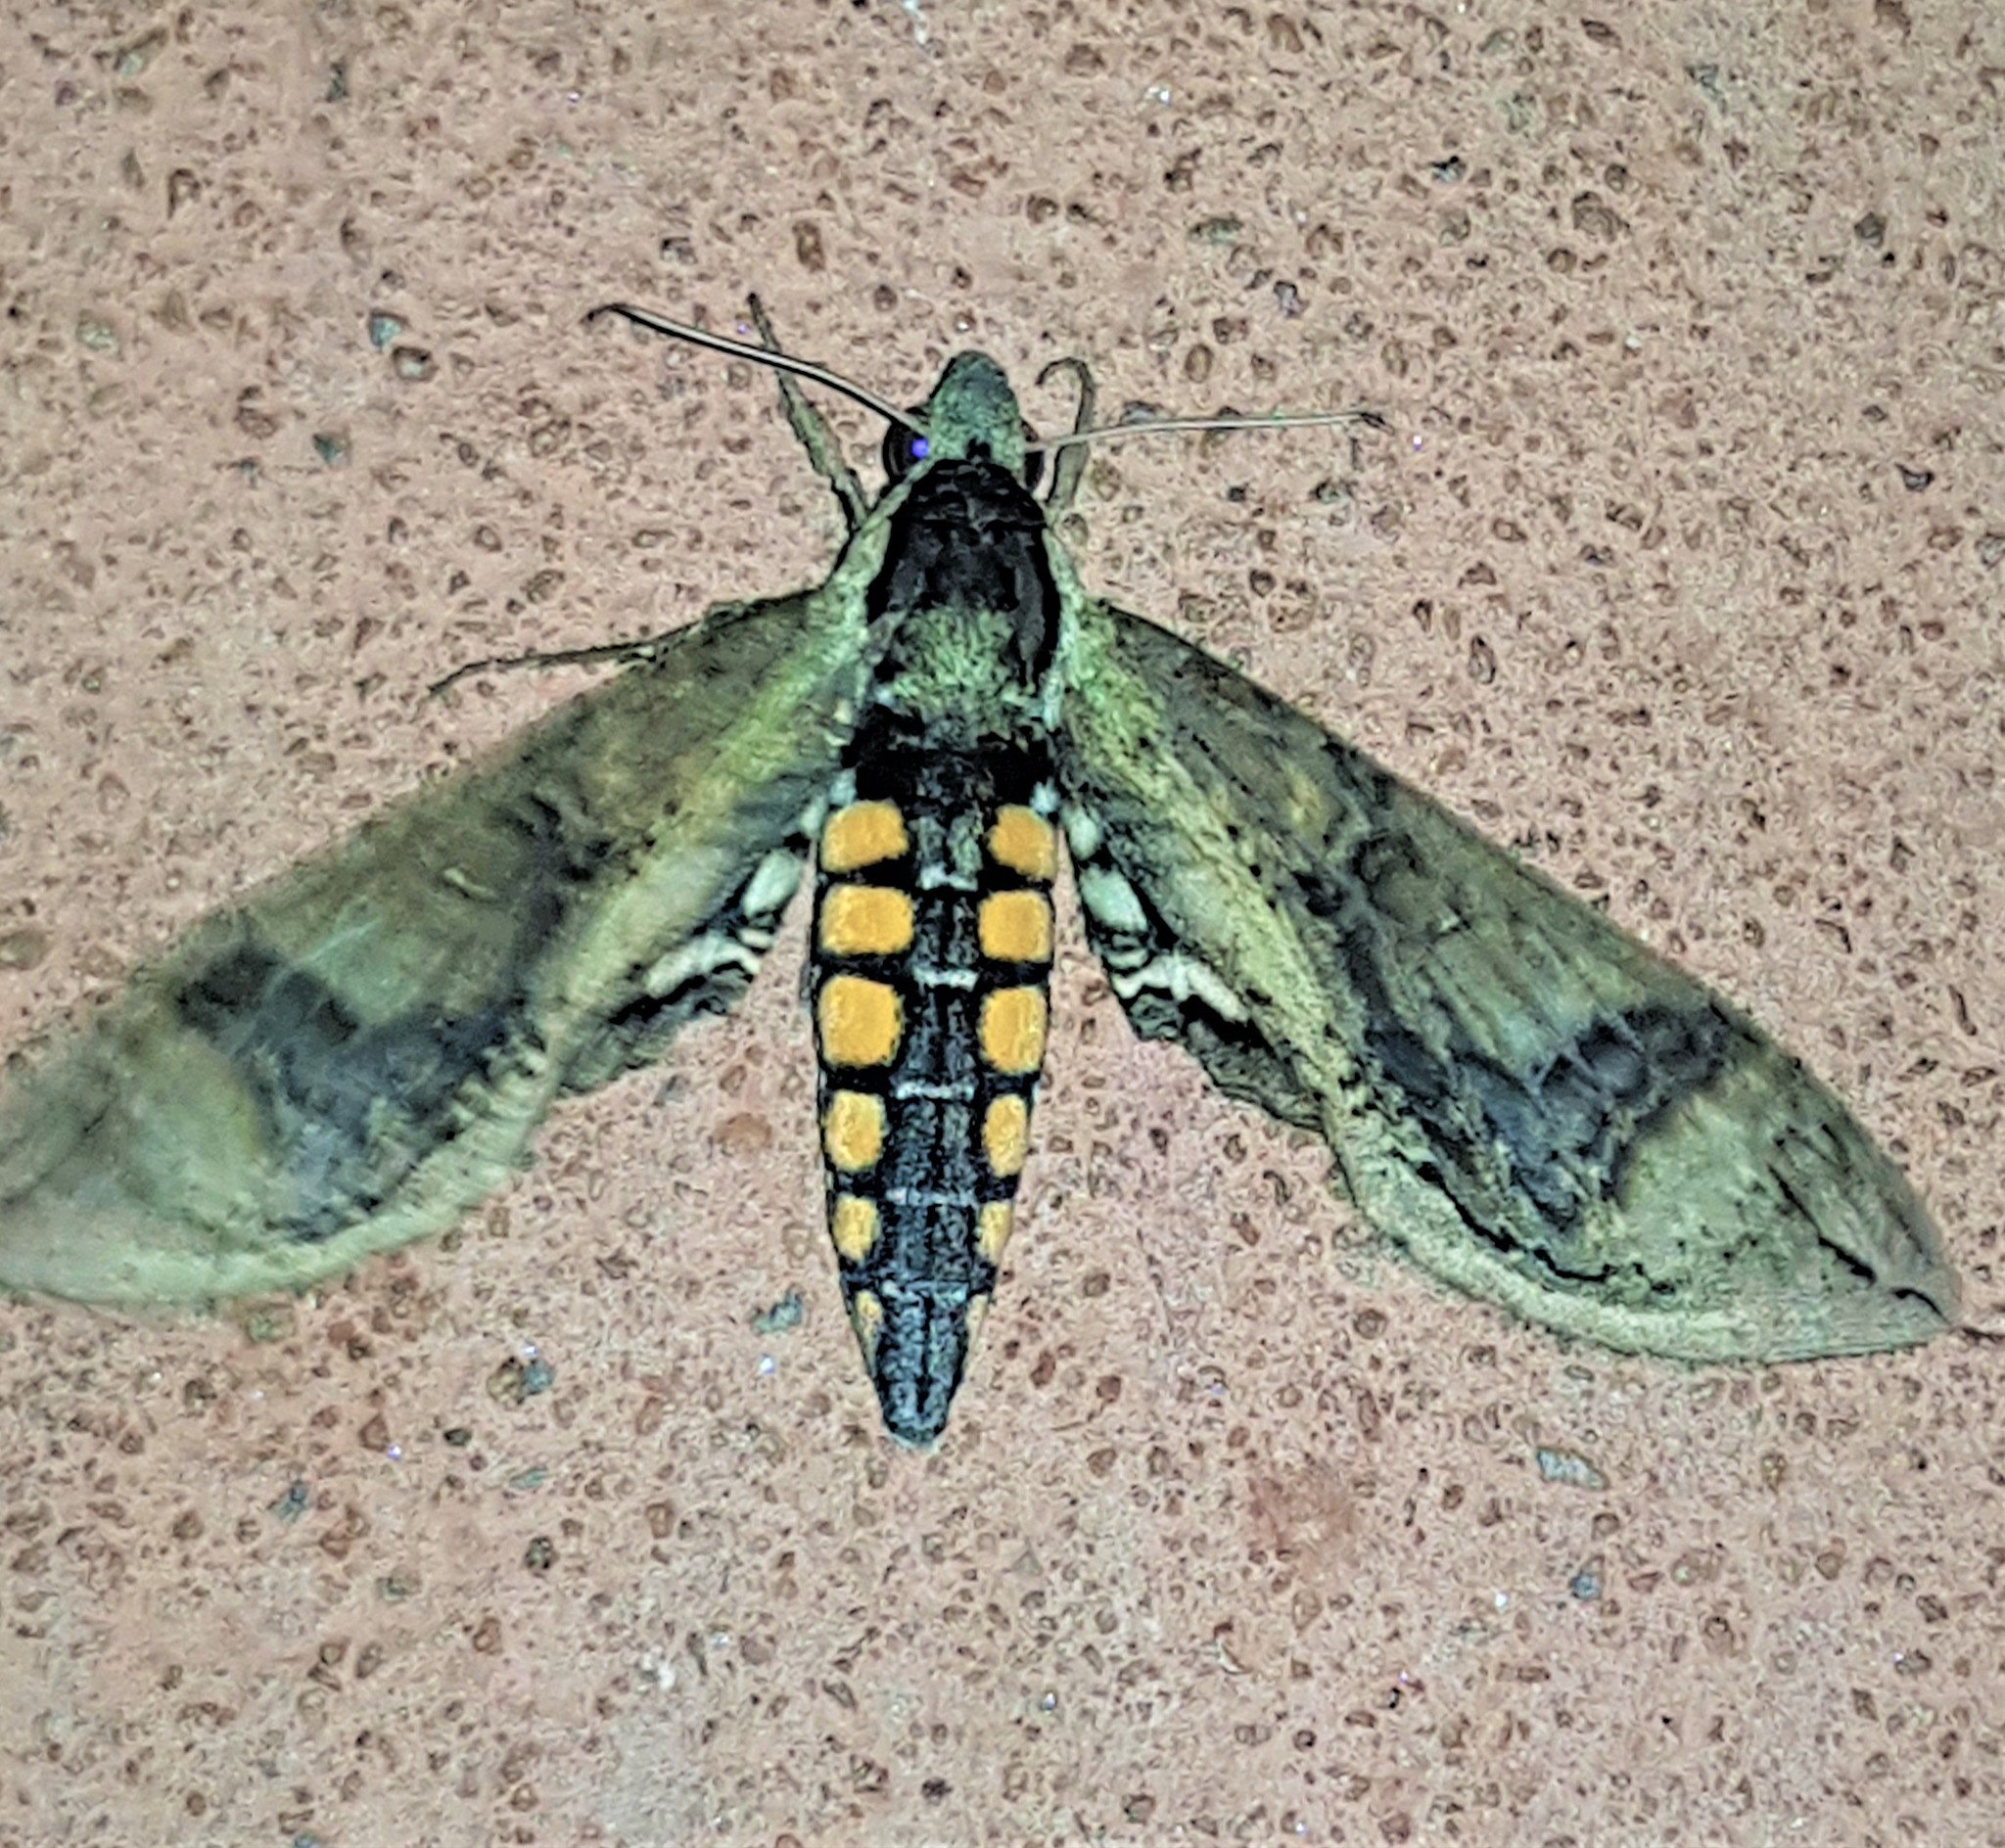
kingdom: Animalia
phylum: Arthropoda
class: Insecta
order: Lepidoptera
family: Sphingidae
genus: Manduca
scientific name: Manduca hannibal
